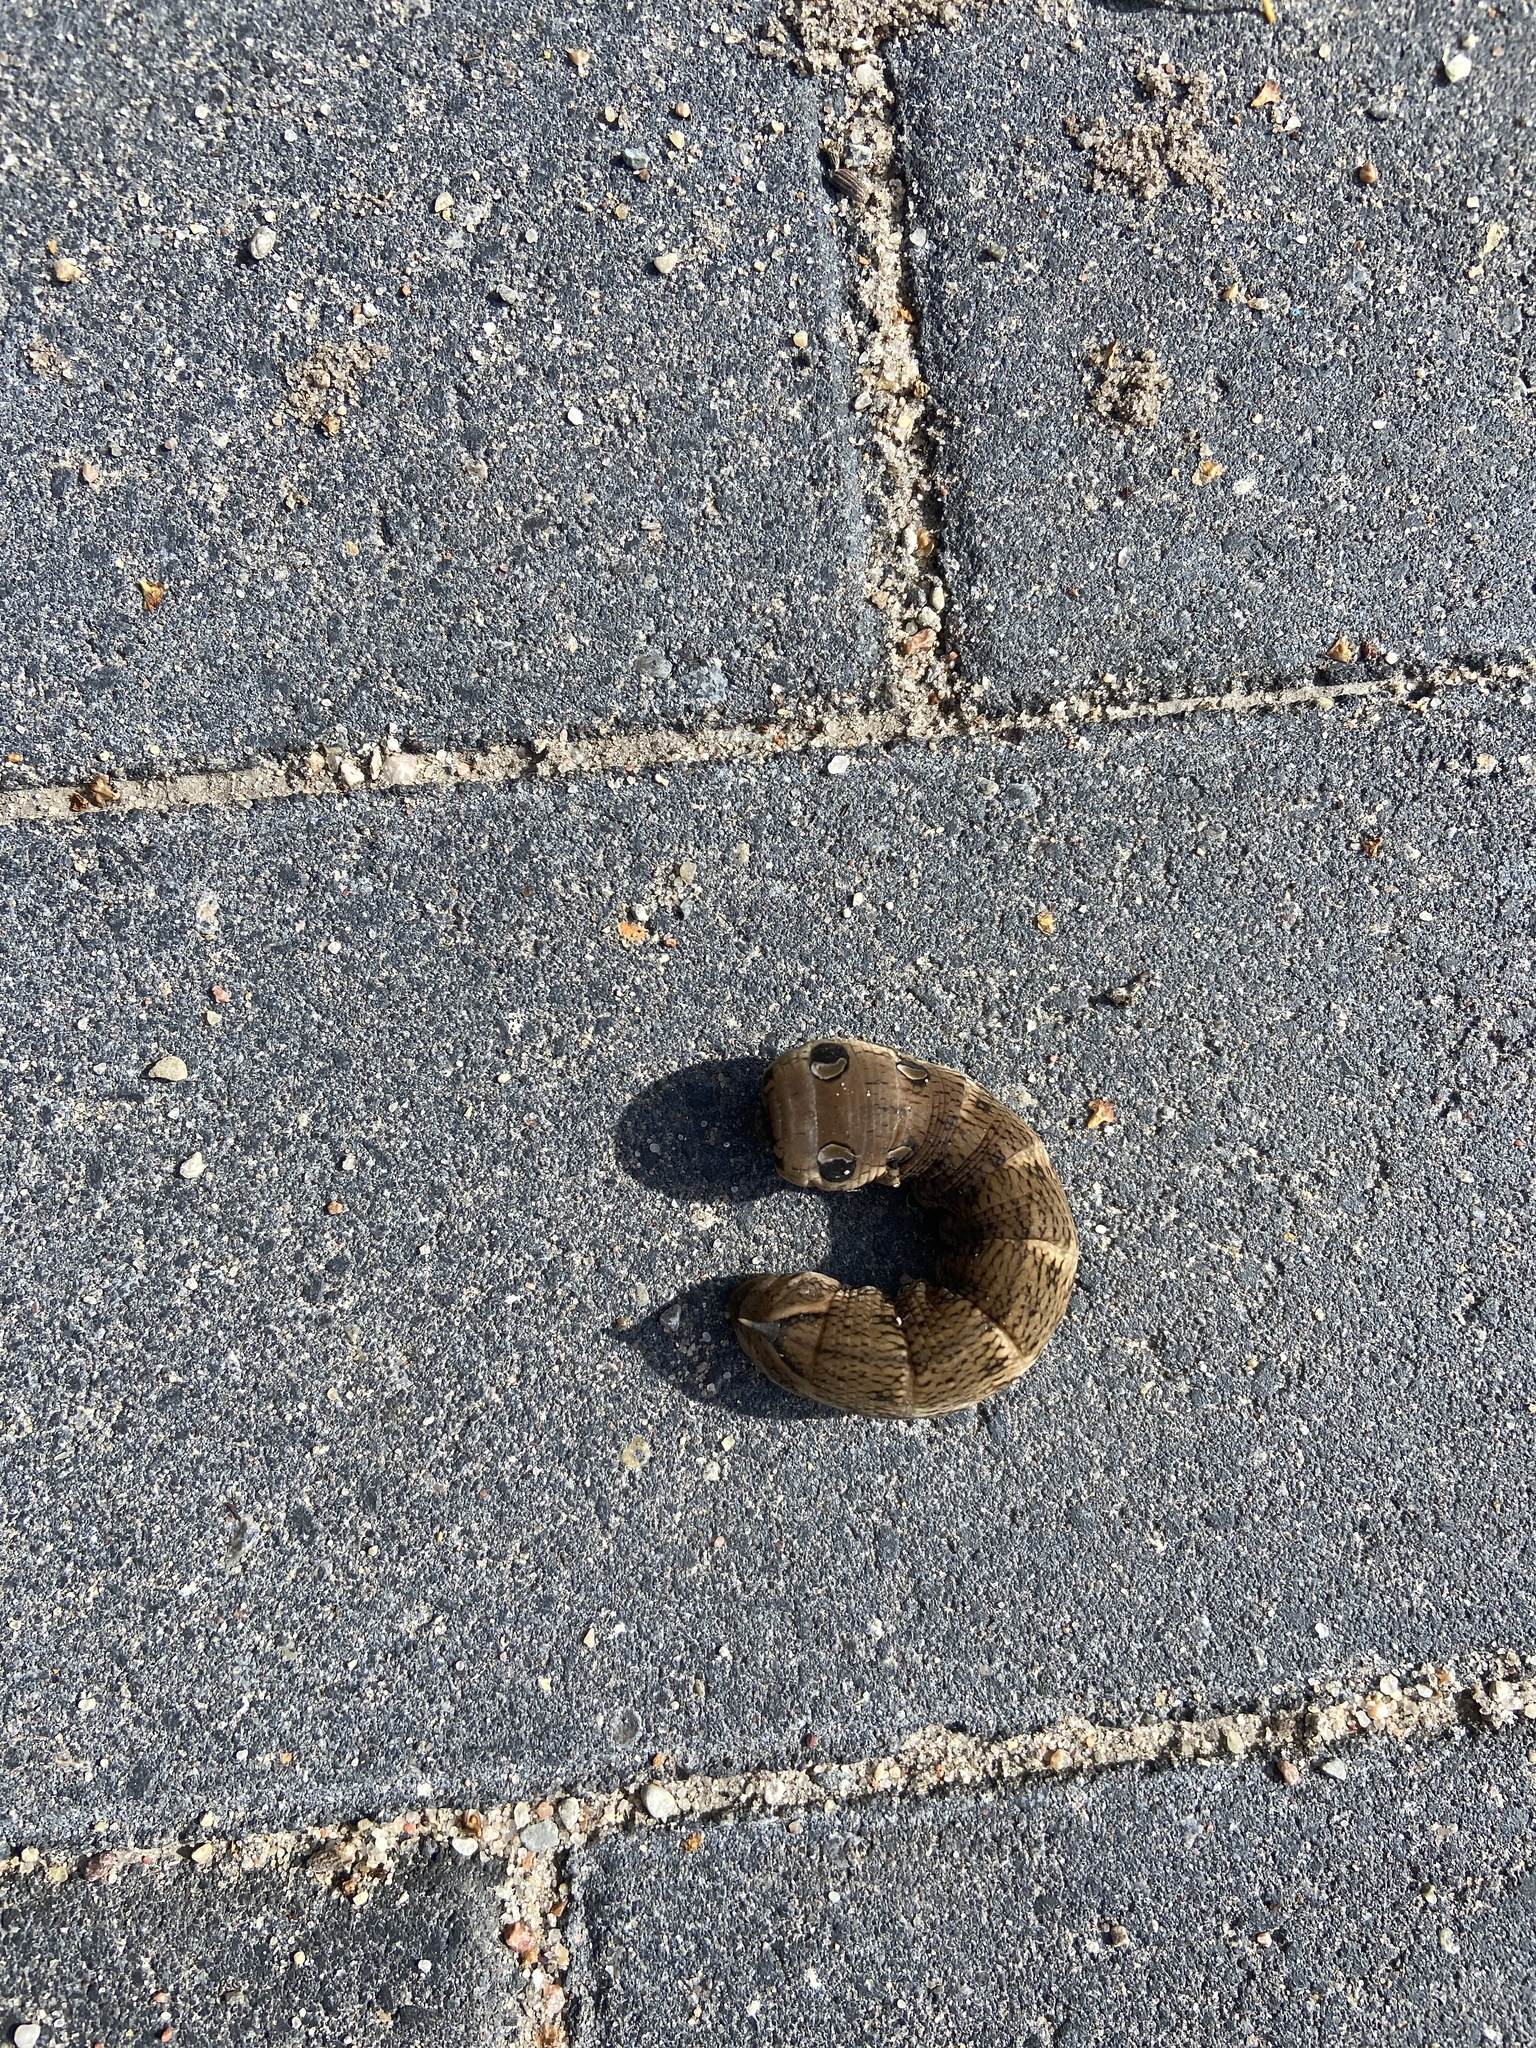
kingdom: Animalia
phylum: Arthropoda
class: Insecta
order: Lepidoptera
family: Sphingidae
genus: Deilephila
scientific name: Deilephila elpenor
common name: Elephant hawk-moth
